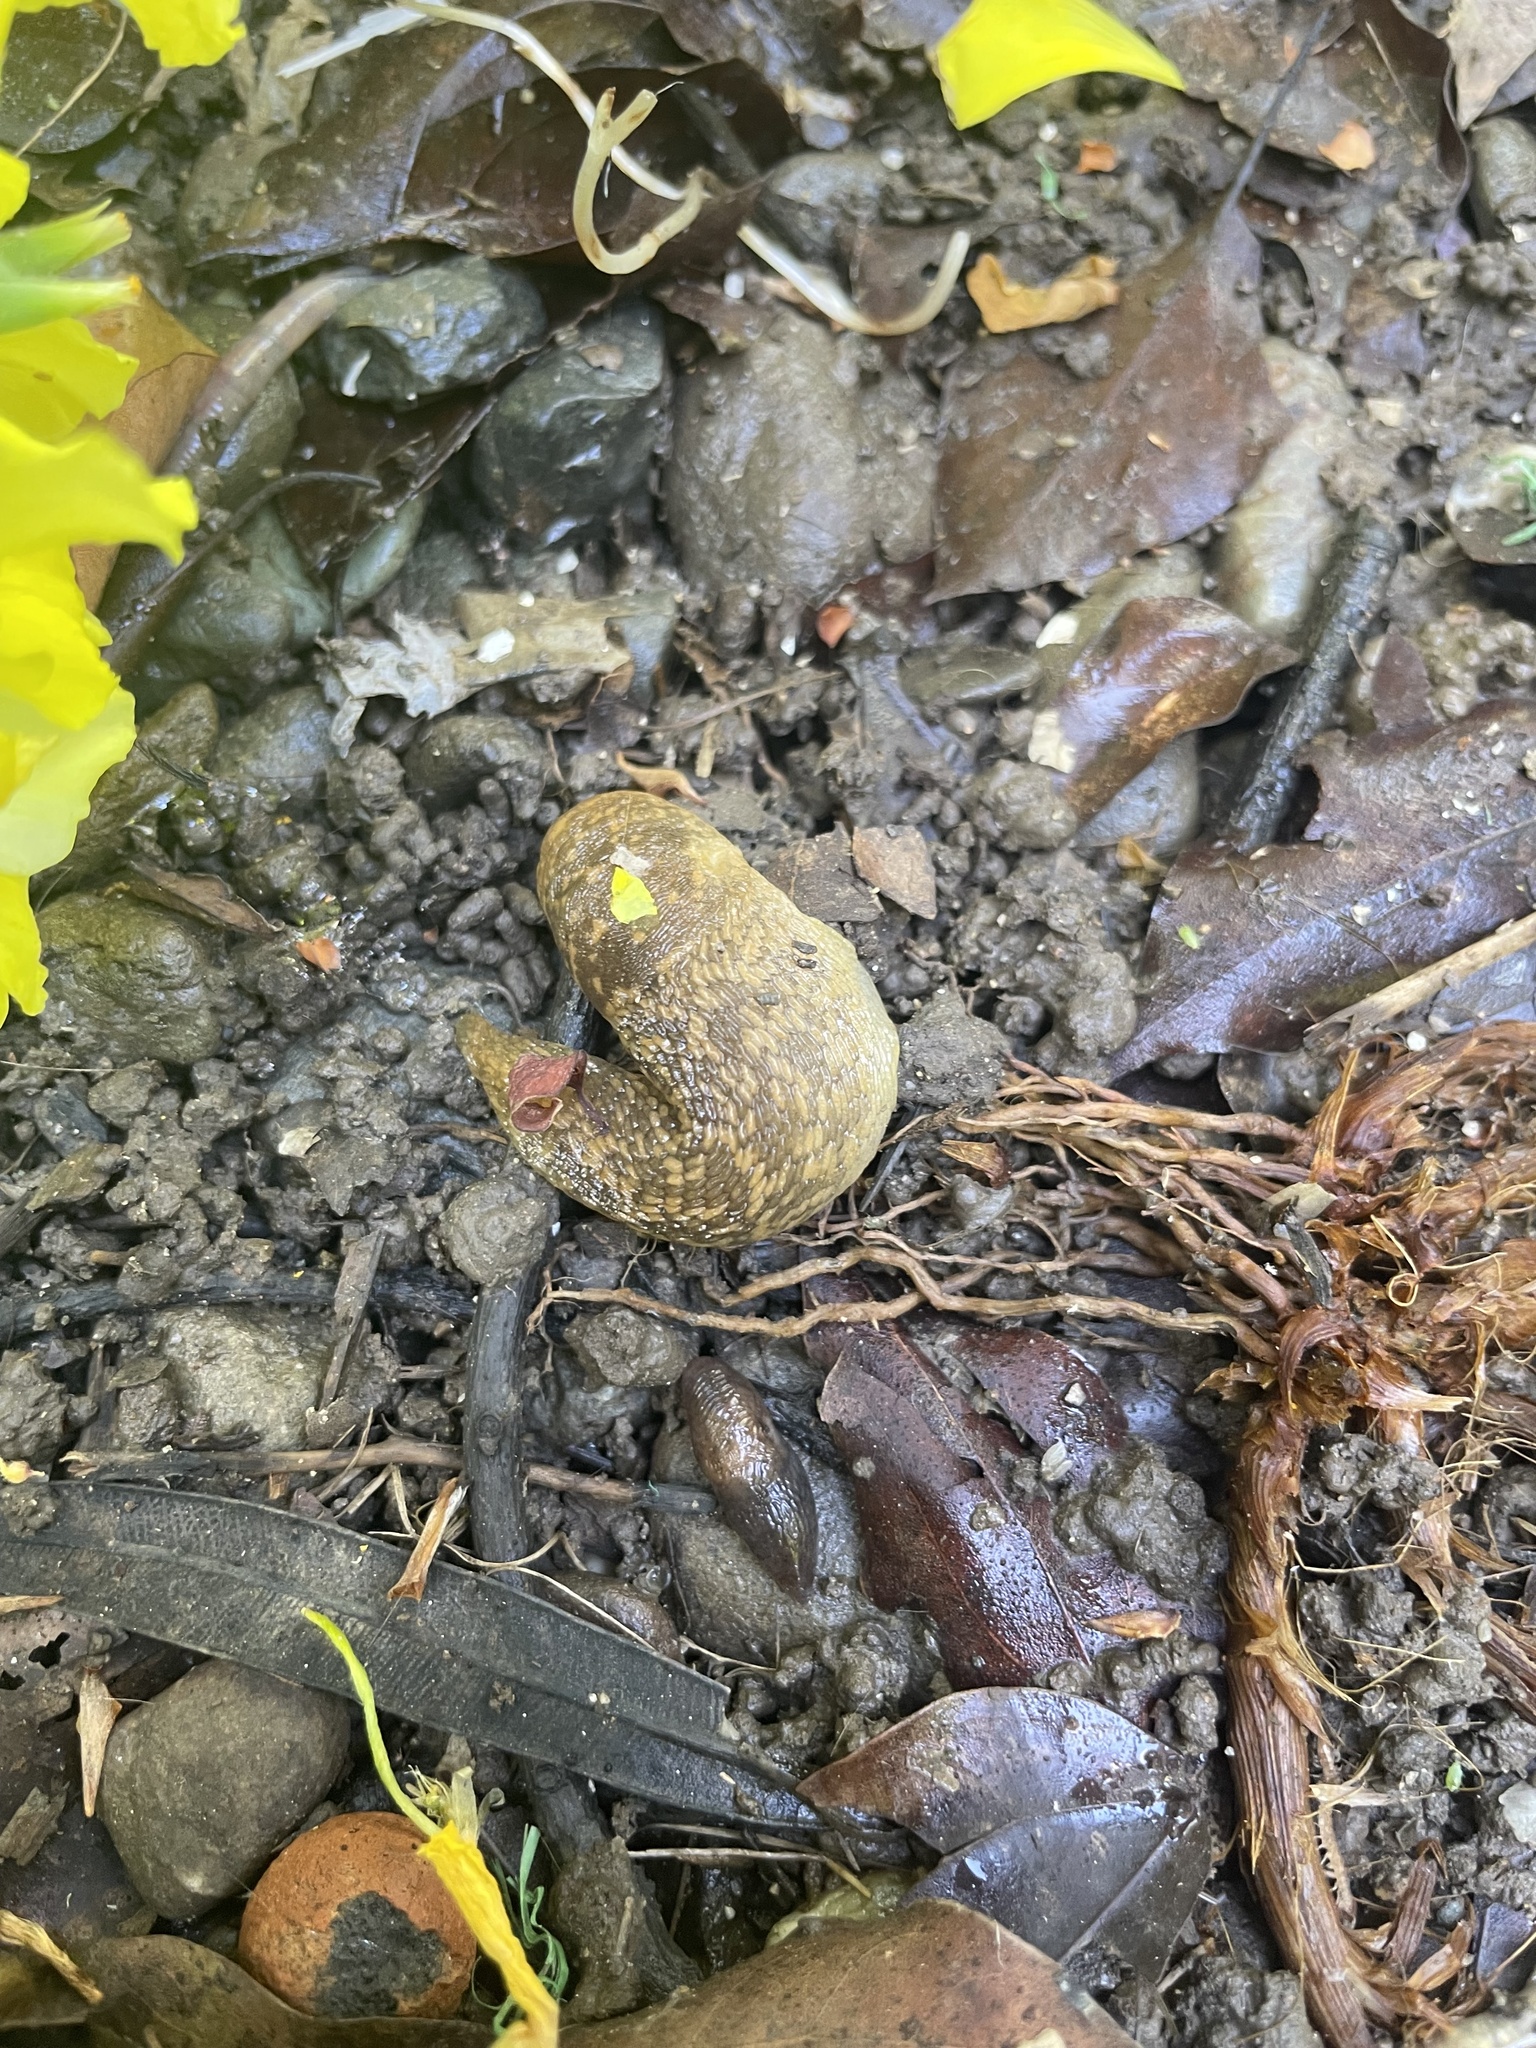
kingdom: Animalia
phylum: Mollusca
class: Gastropoda
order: Stylommatophora
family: Limacidae
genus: Limacus
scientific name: Limacus flavus
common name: Yellow gardenslug
